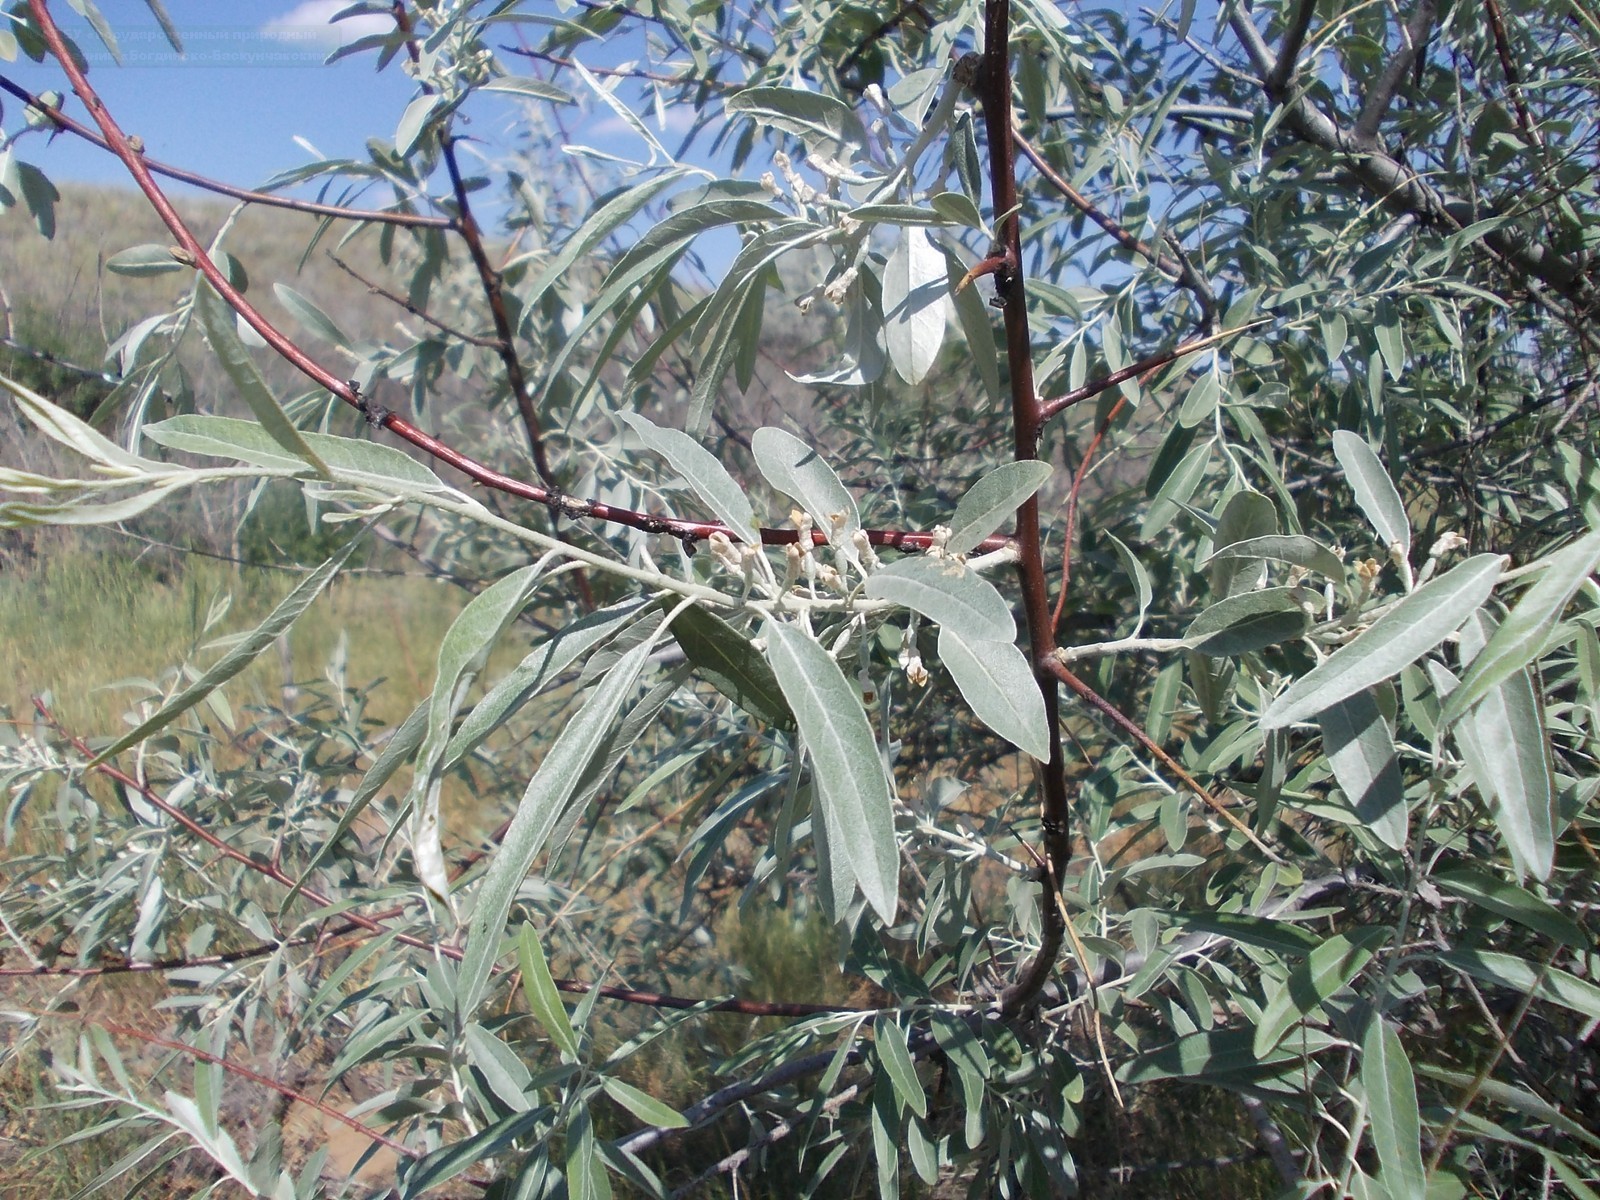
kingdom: Plantae
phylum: Tracheophyta
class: Magnoliopsida
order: Rosales
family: Elaeagnaceae
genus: Elaeagnus
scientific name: Elaeagnus angustifolia
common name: Russian olive
